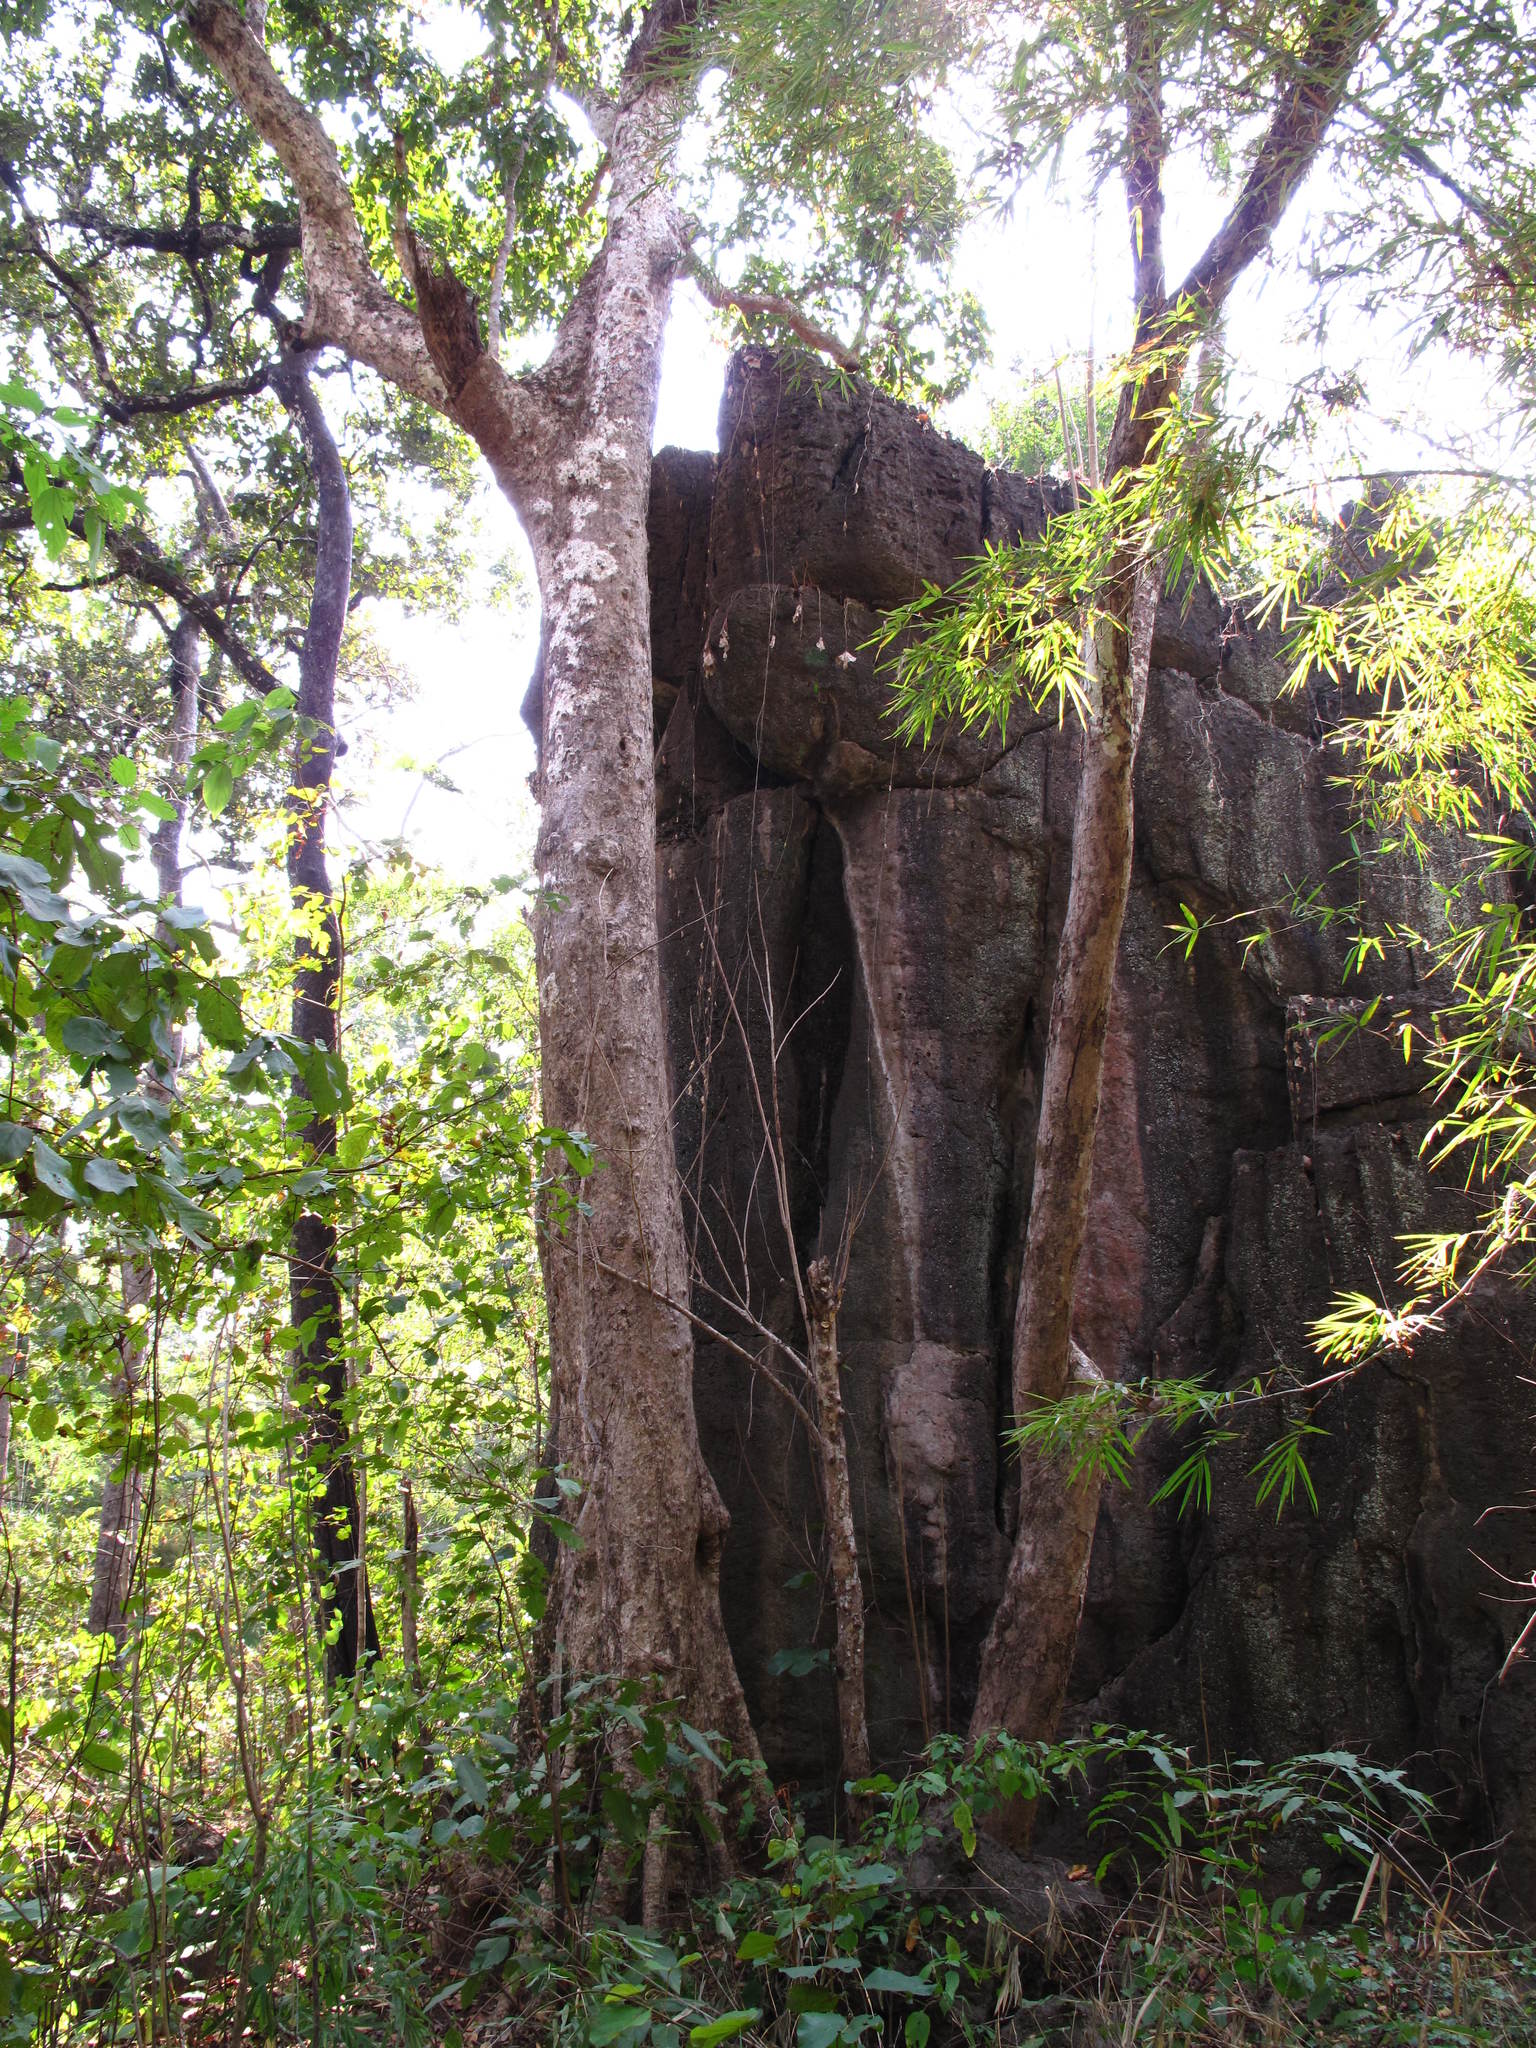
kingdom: Plantae
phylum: Tracheophyta
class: Magnoliopsida
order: Sapindales
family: Sapindaceae
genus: Schleichera
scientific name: Schleichera oleosa
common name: Malay lactree
